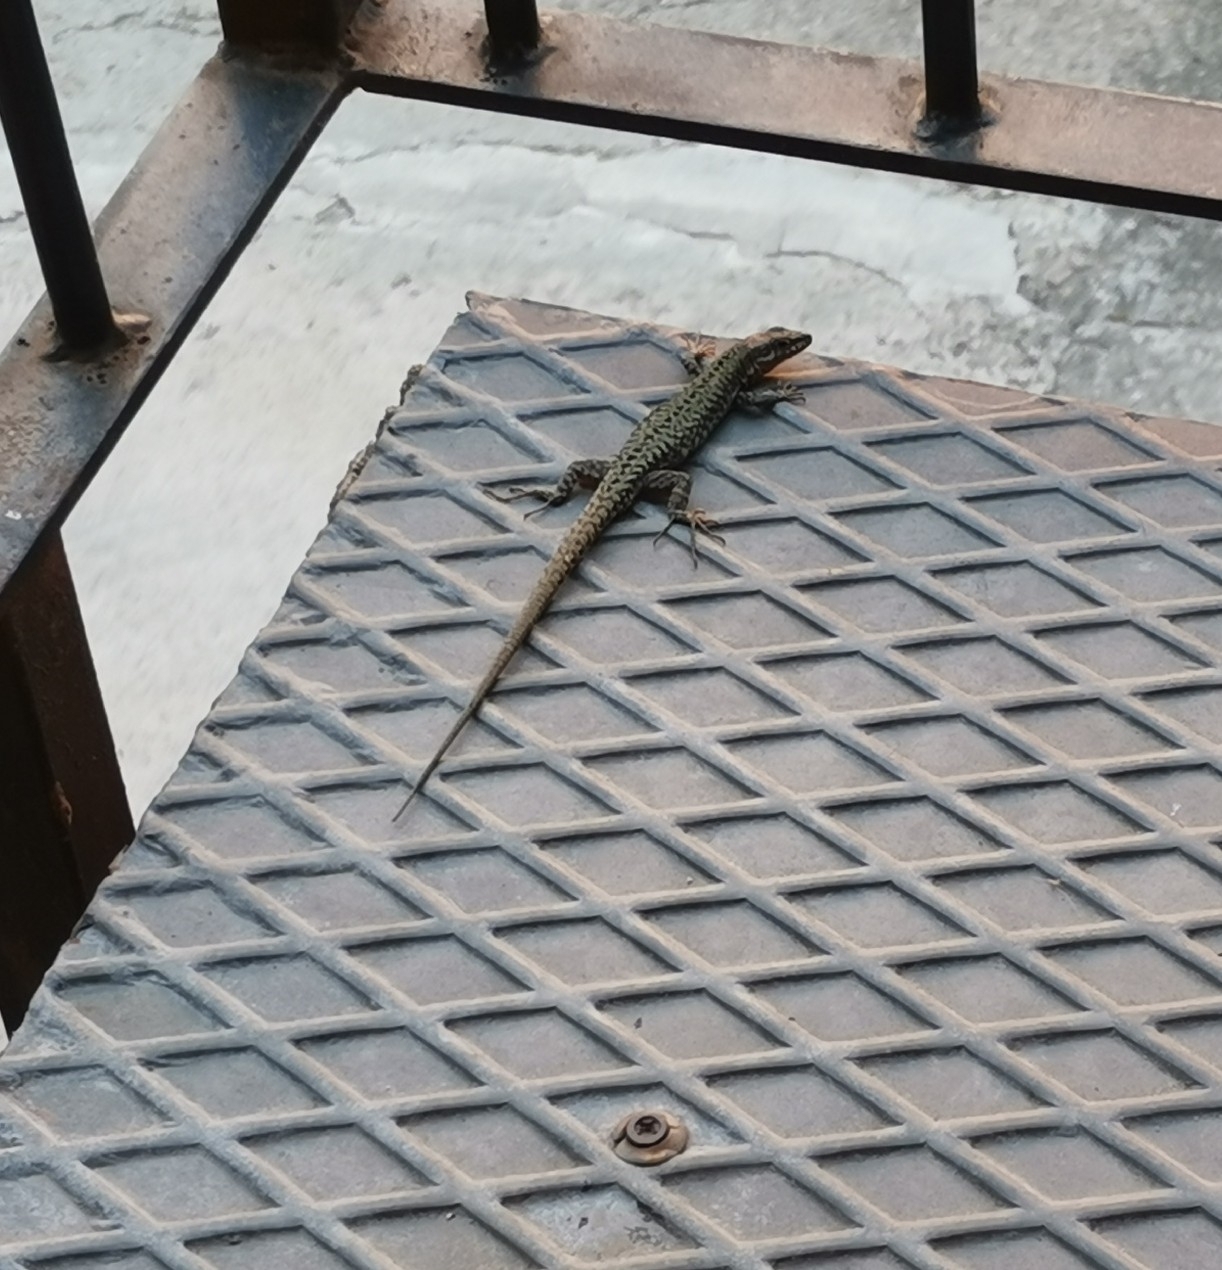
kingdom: Animalia
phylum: Chordata
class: Squamata
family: Lacertidae
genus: Podarcis
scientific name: Podarcis muralis
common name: Common wall lizard
